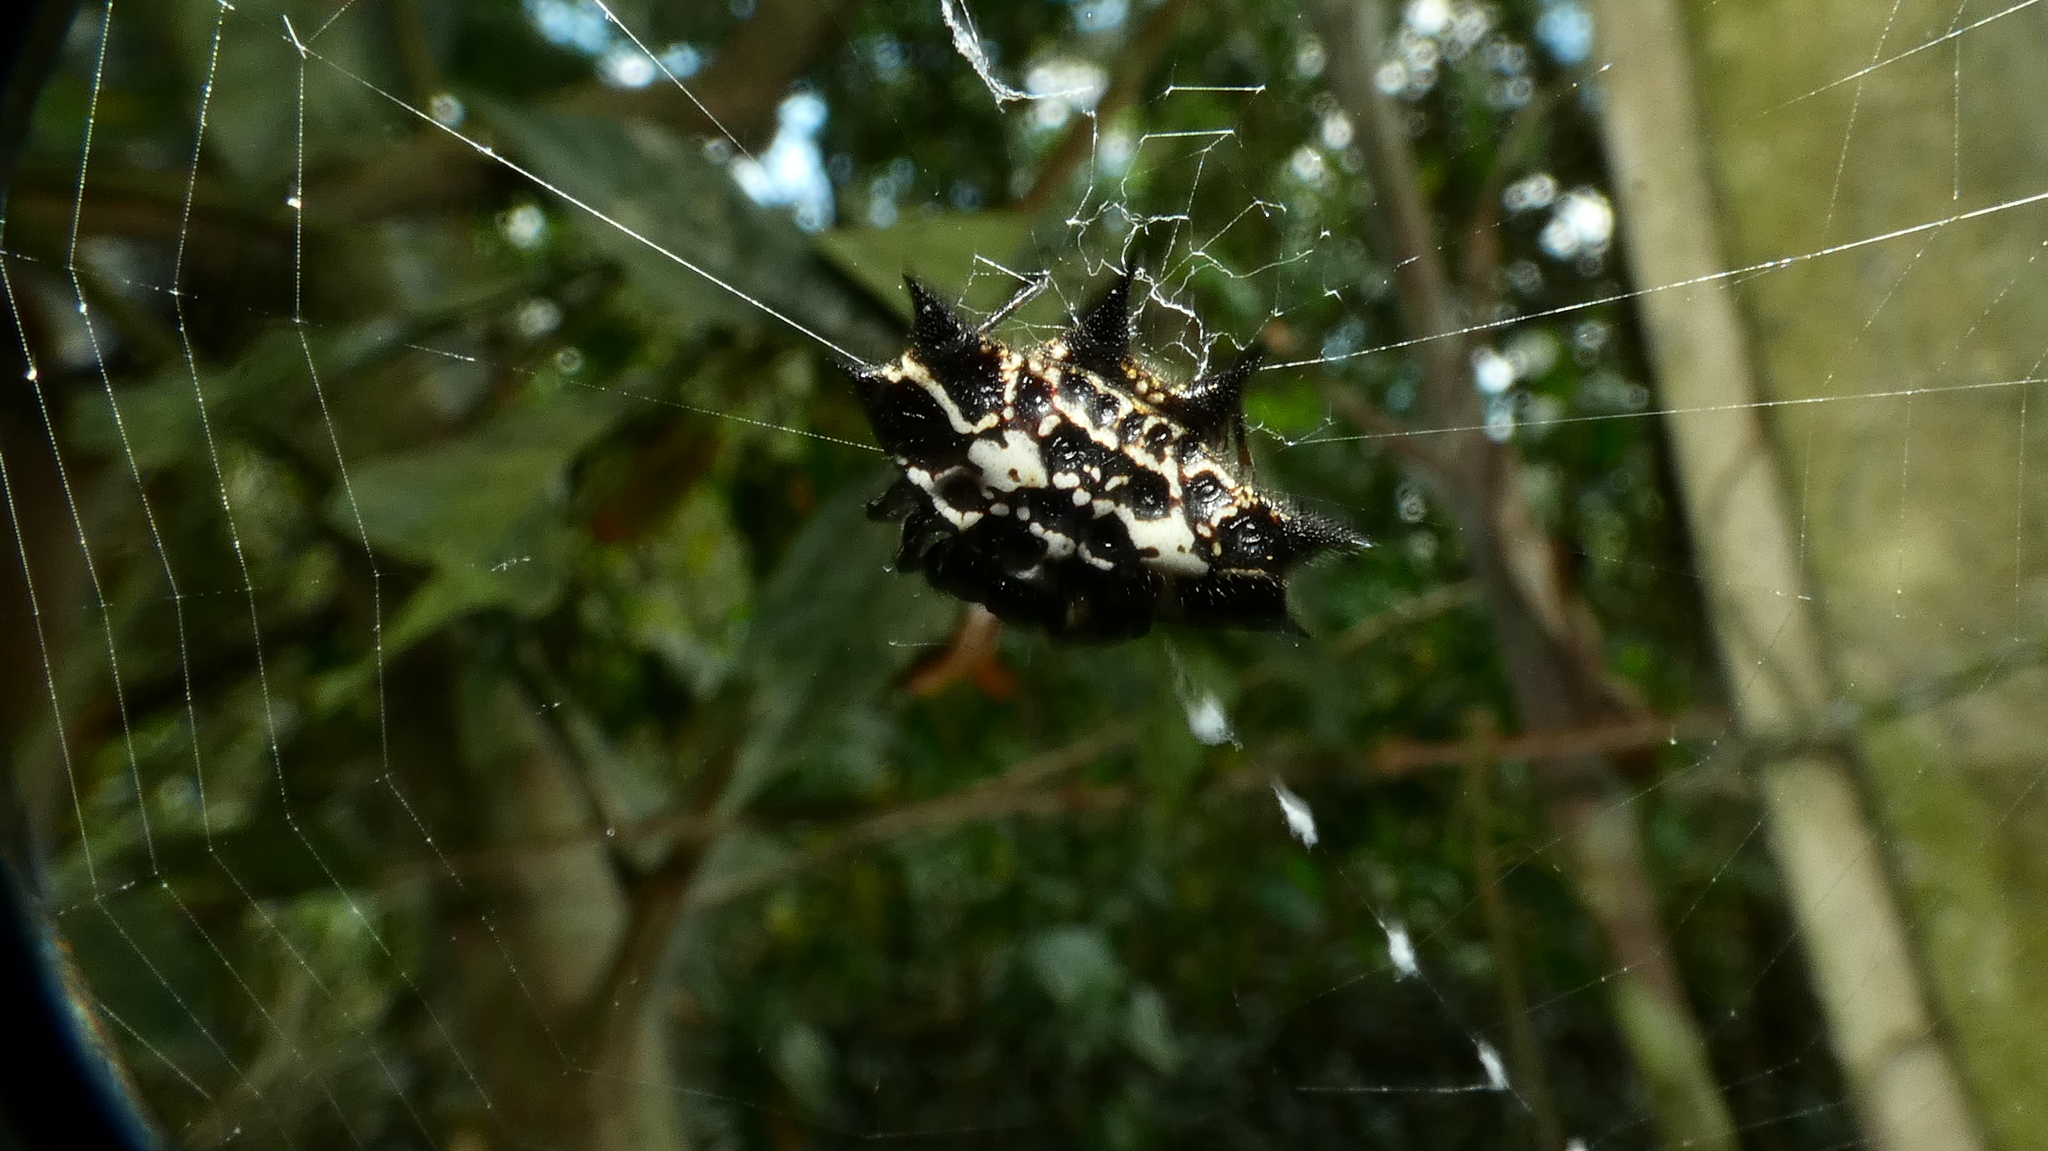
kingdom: Animalia
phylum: Arthropoda
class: Arachnida
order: Araneae
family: Araneidae
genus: Gasteracantha
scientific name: Gasteracantha cancriformis
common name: Orb weavers
